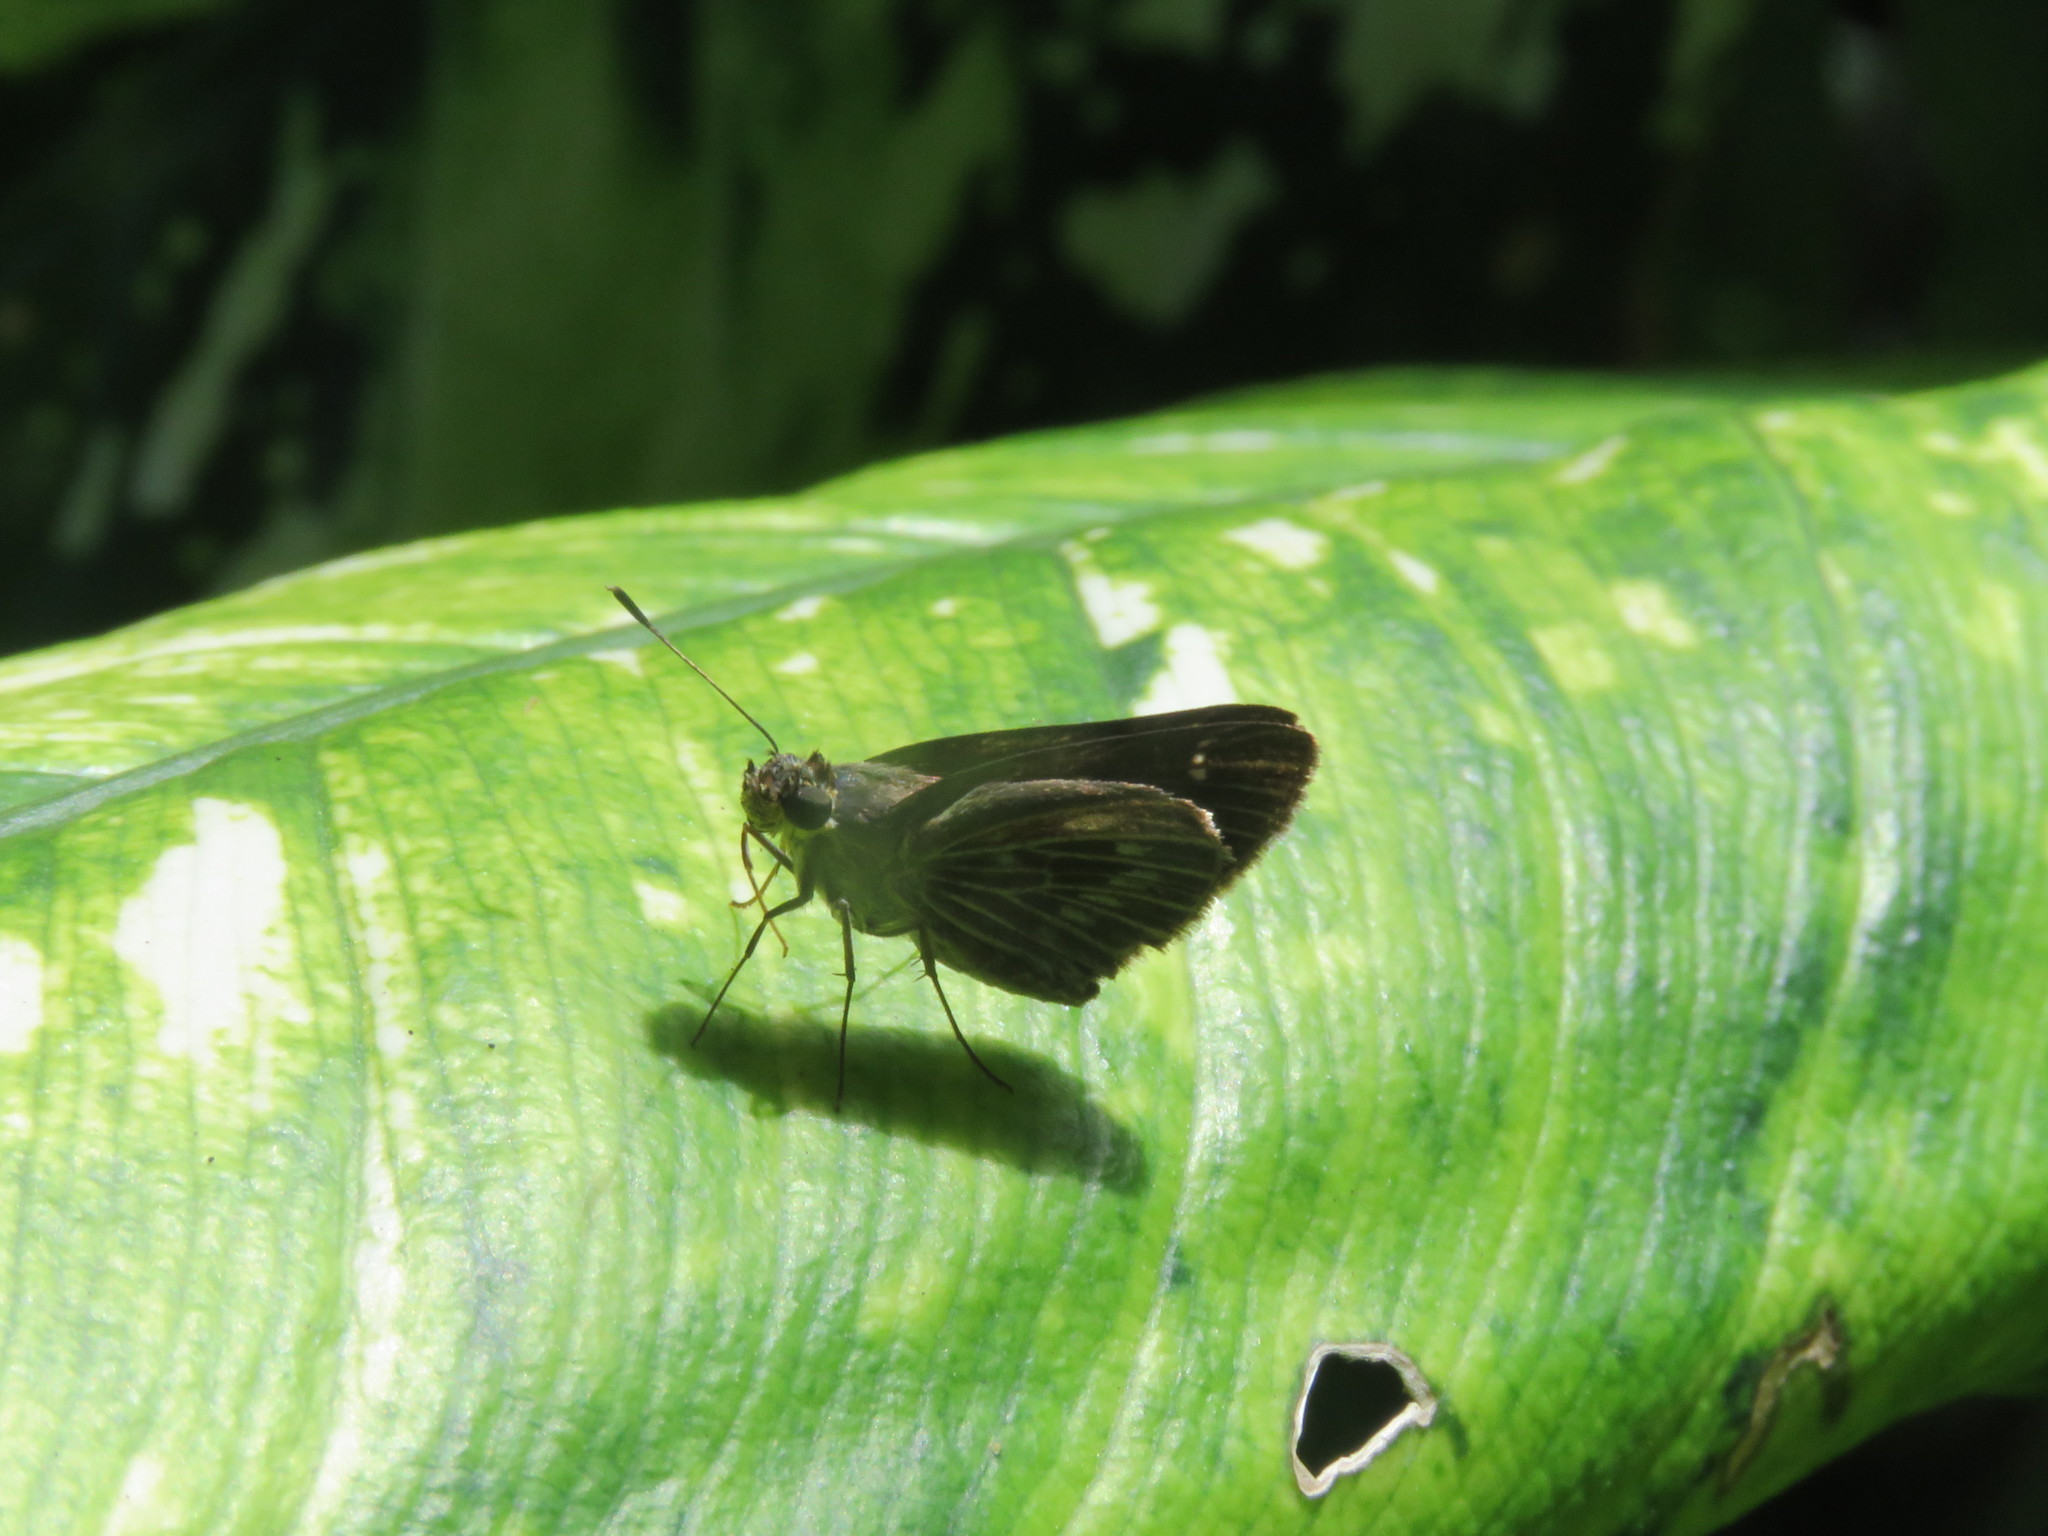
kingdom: Animalia
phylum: Arthropoda
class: Insecta
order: Lepidoptera
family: Hesperiidae
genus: Vehilius
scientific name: Vehilius stictomenes
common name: Pasture skipper
